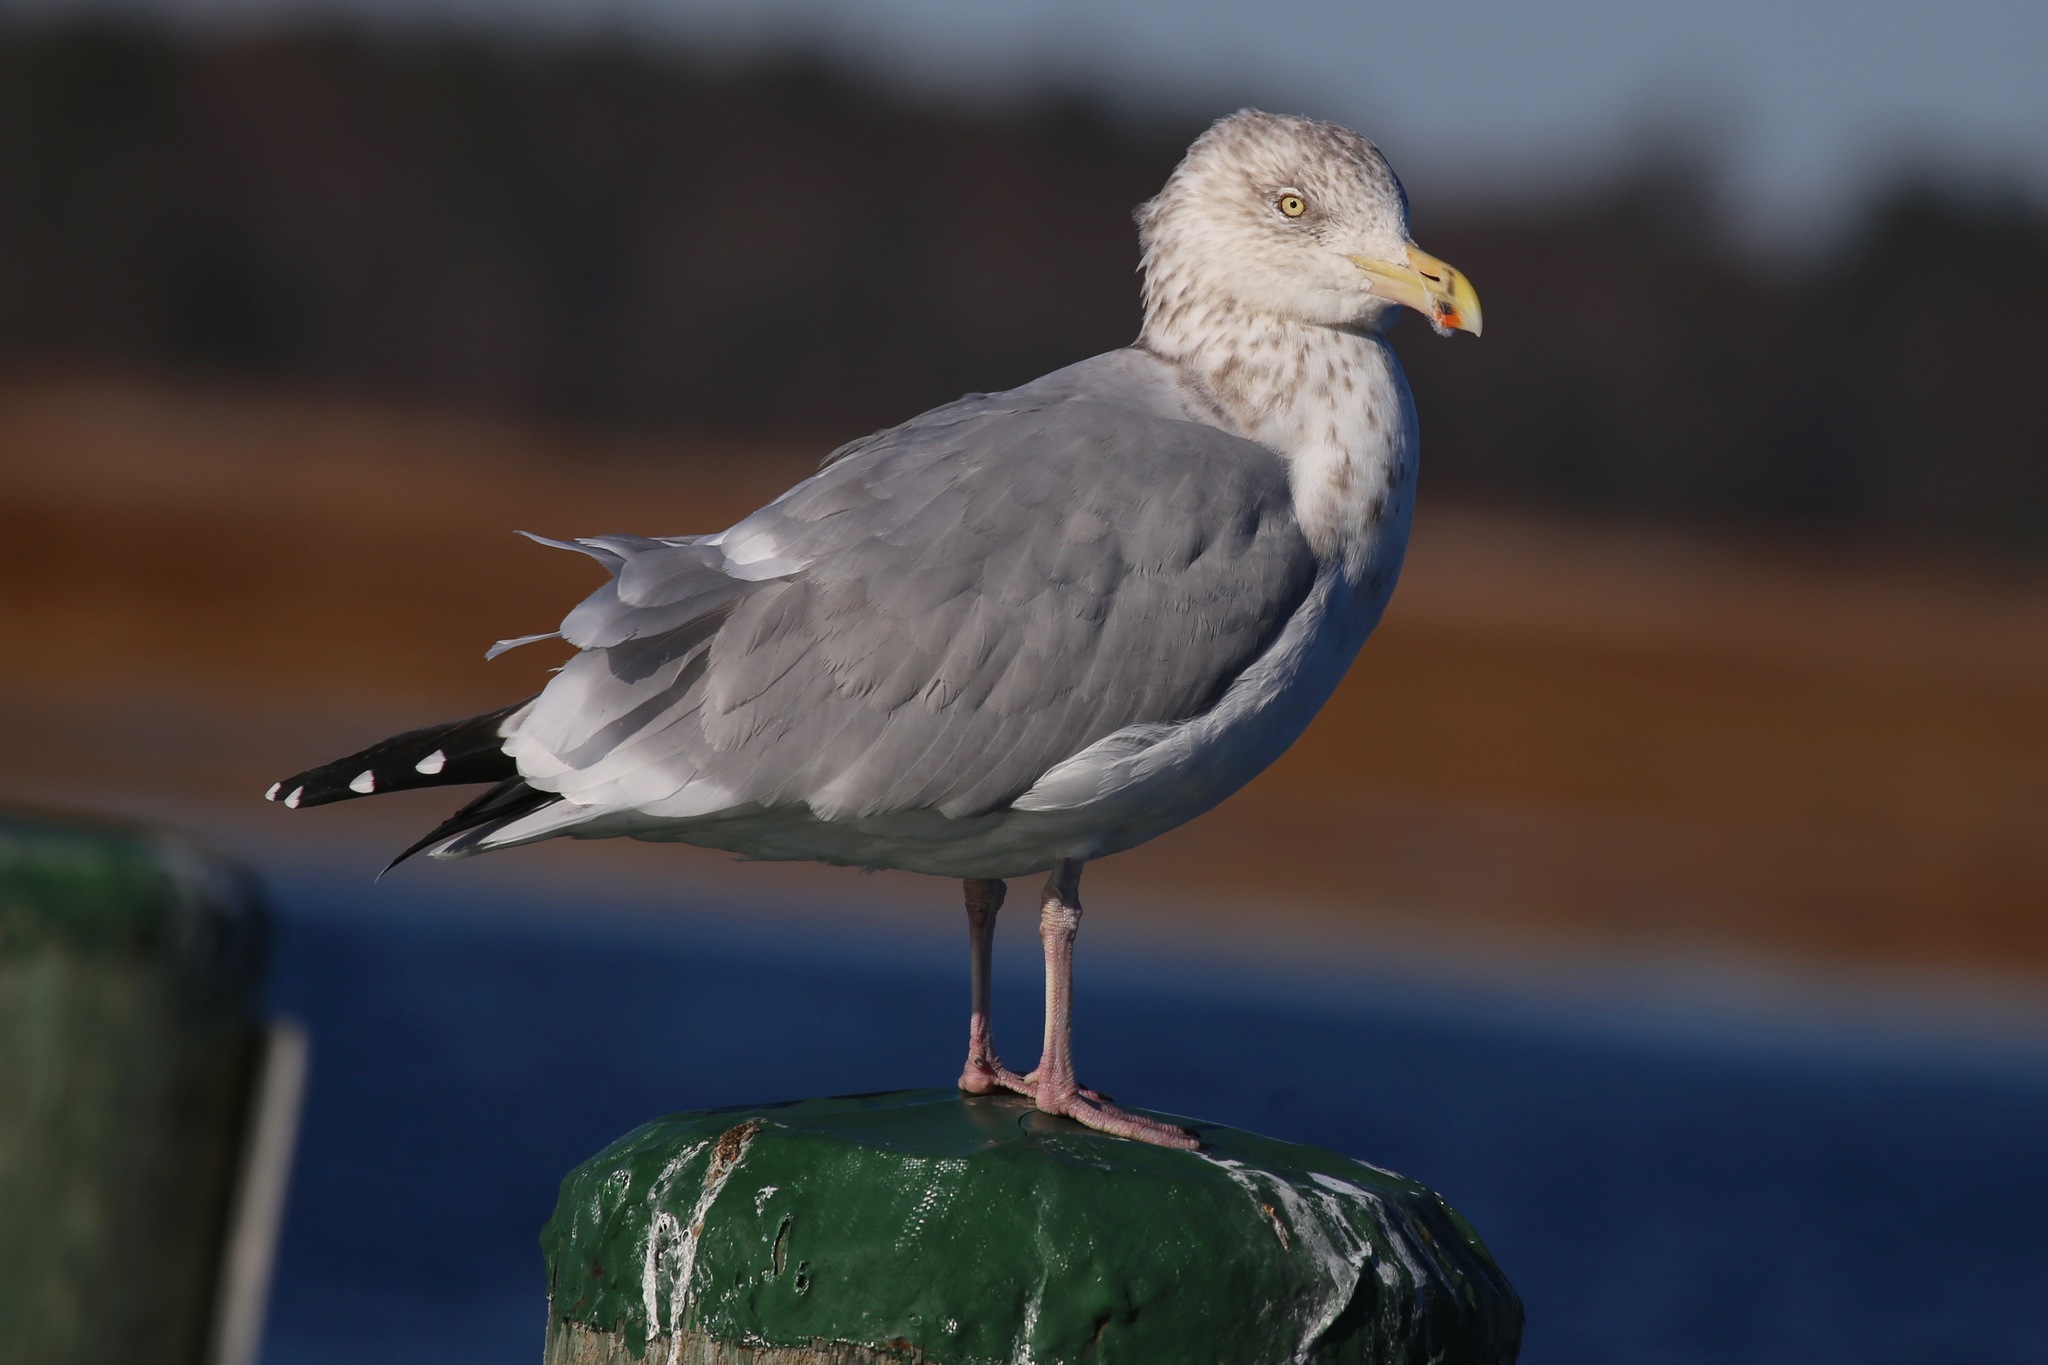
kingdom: Animalia
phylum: Chordata
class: Aves
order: Charadriiformes
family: Laridae
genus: Larus
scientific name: Larus argentatus
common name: Herring gull
